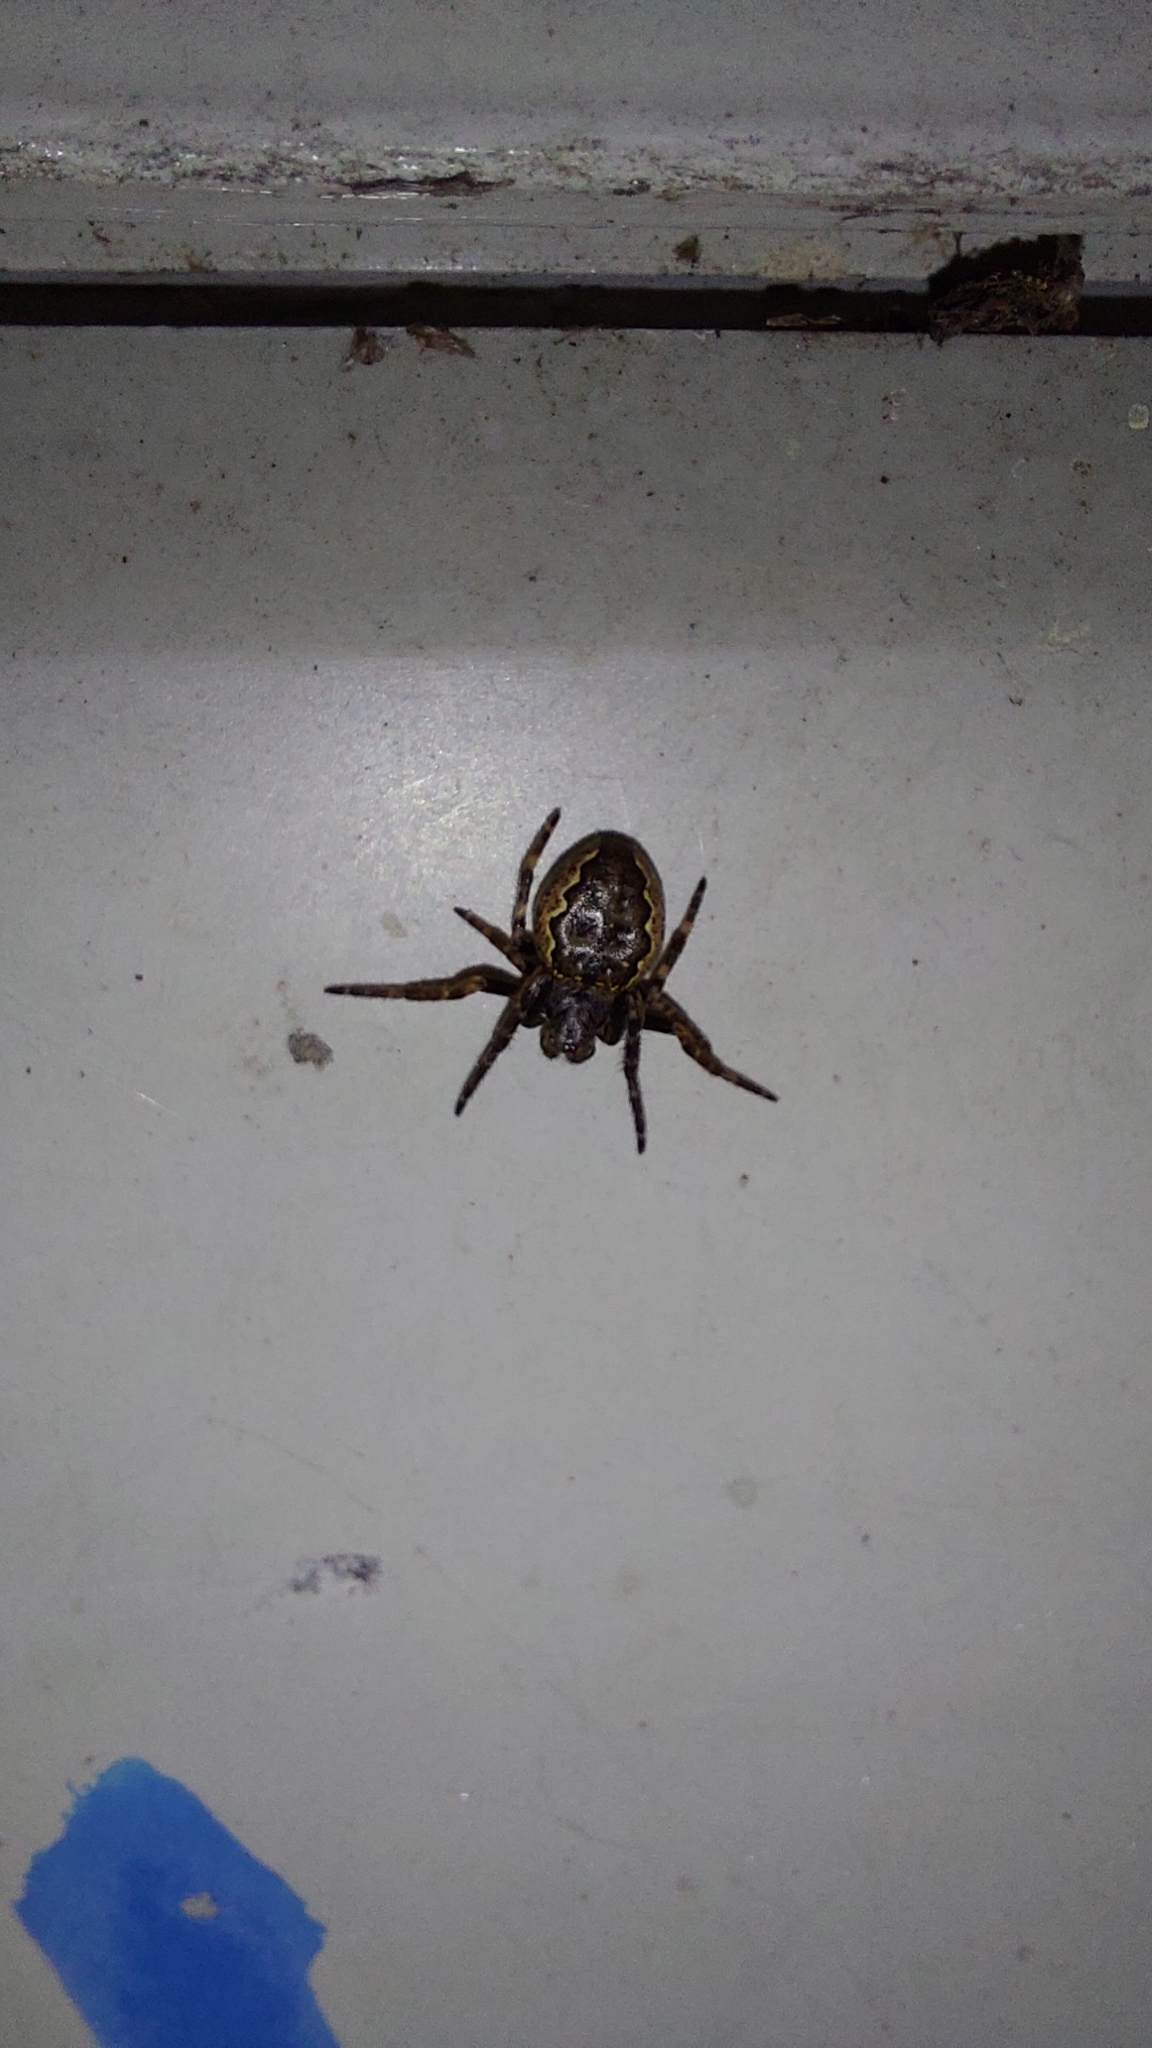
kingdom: Animalia
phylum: Arthropoda
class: Arachnida
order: Araneae
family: Araneidae
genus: Nuctenea
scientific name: Nuctenea umbratica
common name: Toad spider
